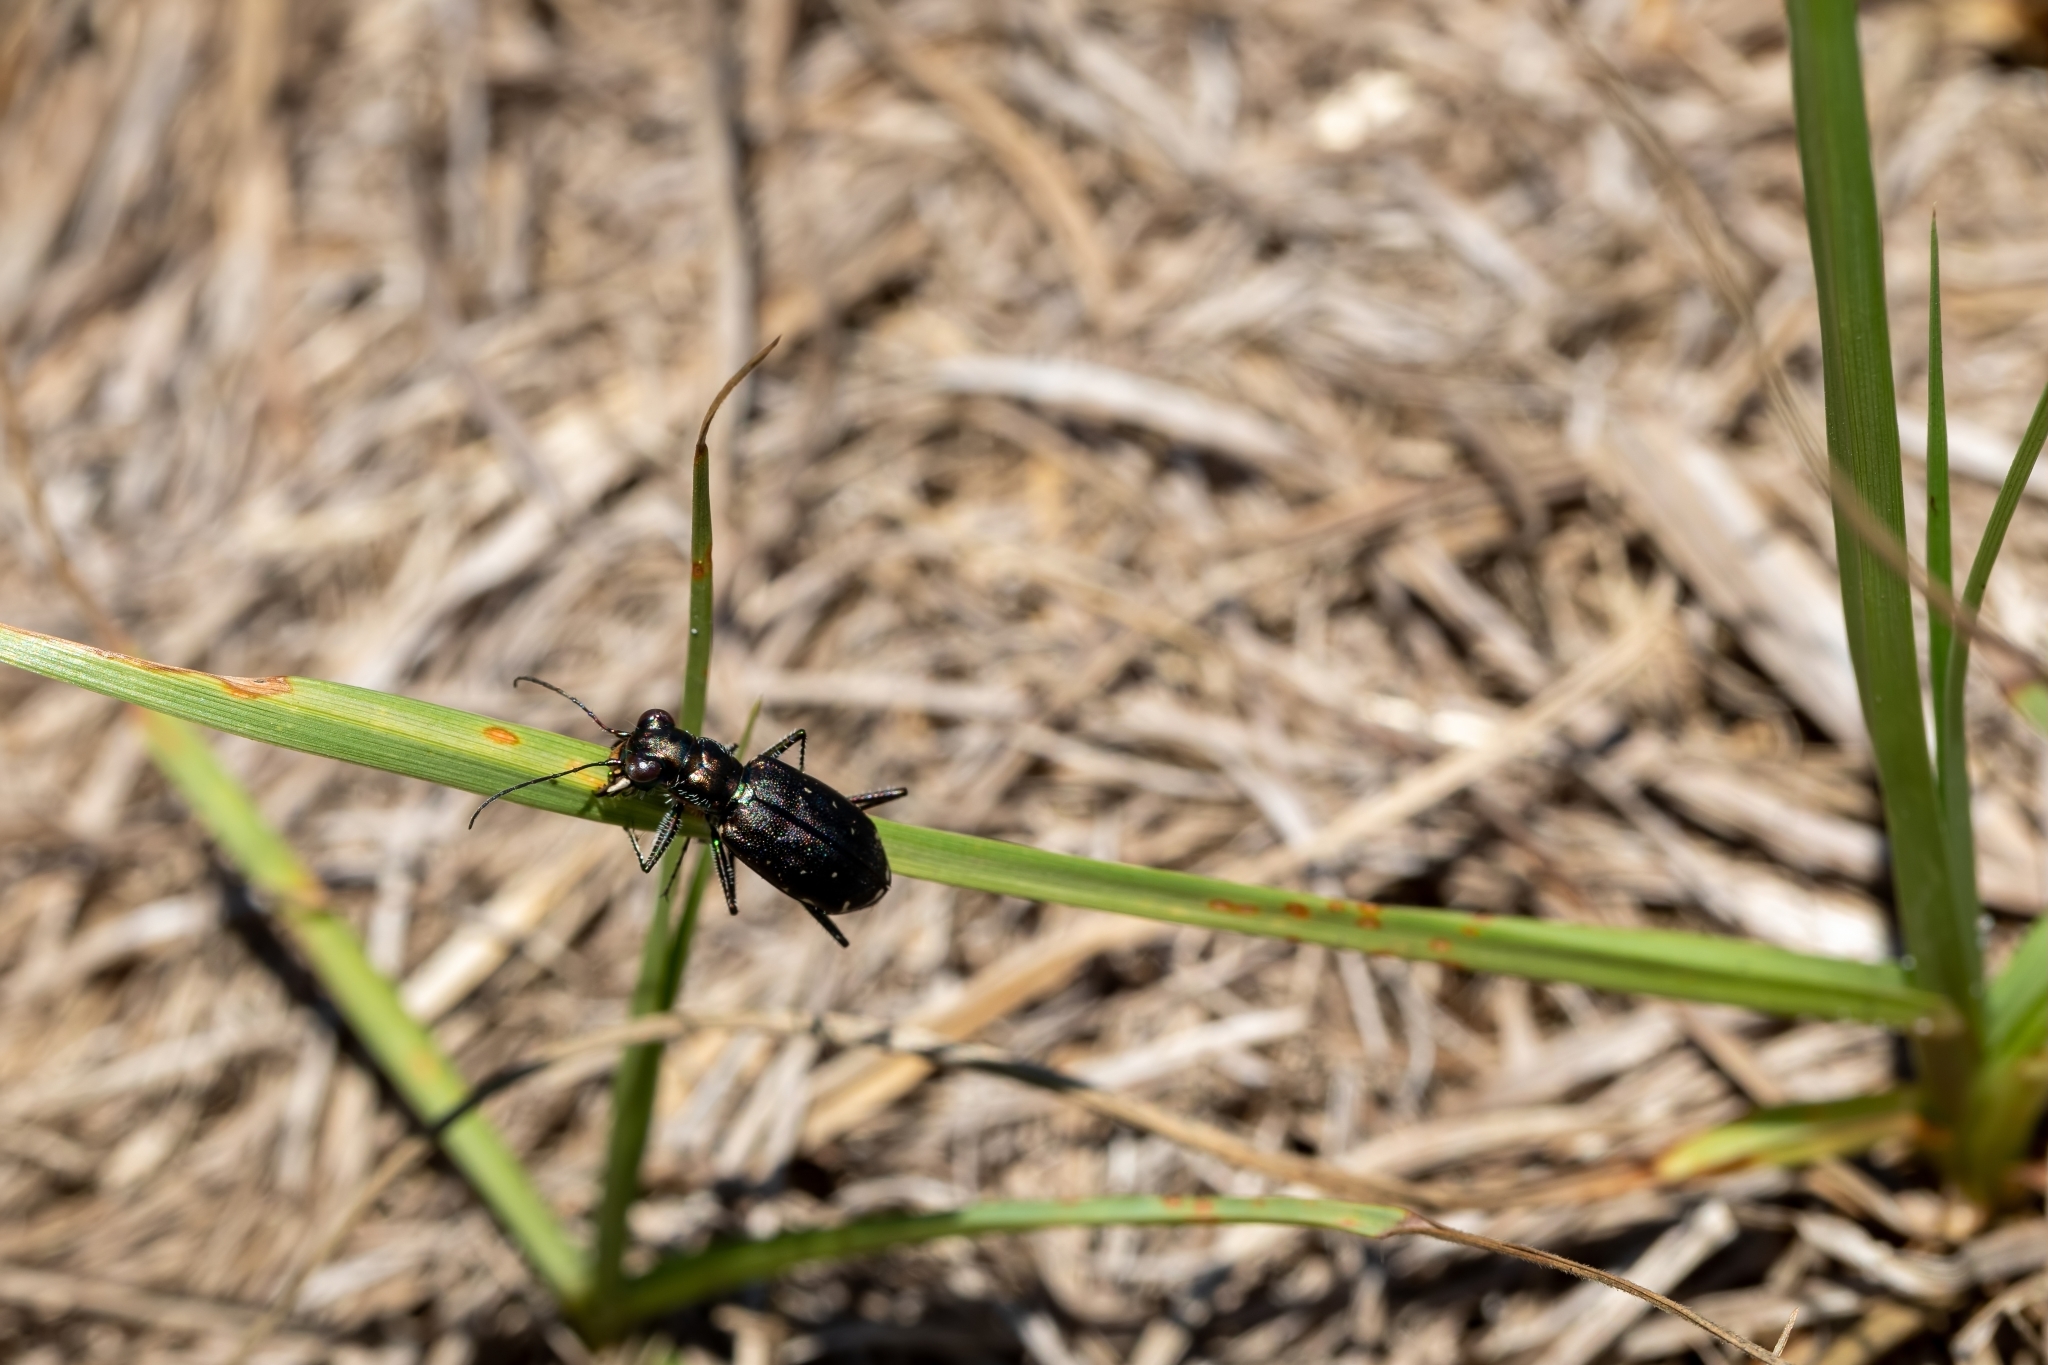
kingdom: Animalia
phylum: Arthropoda
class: Insecta
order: Coleoptera
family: Carabidae
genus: Cicindela
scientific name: Cicindela punctulata
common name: Punctured tiger beetle
